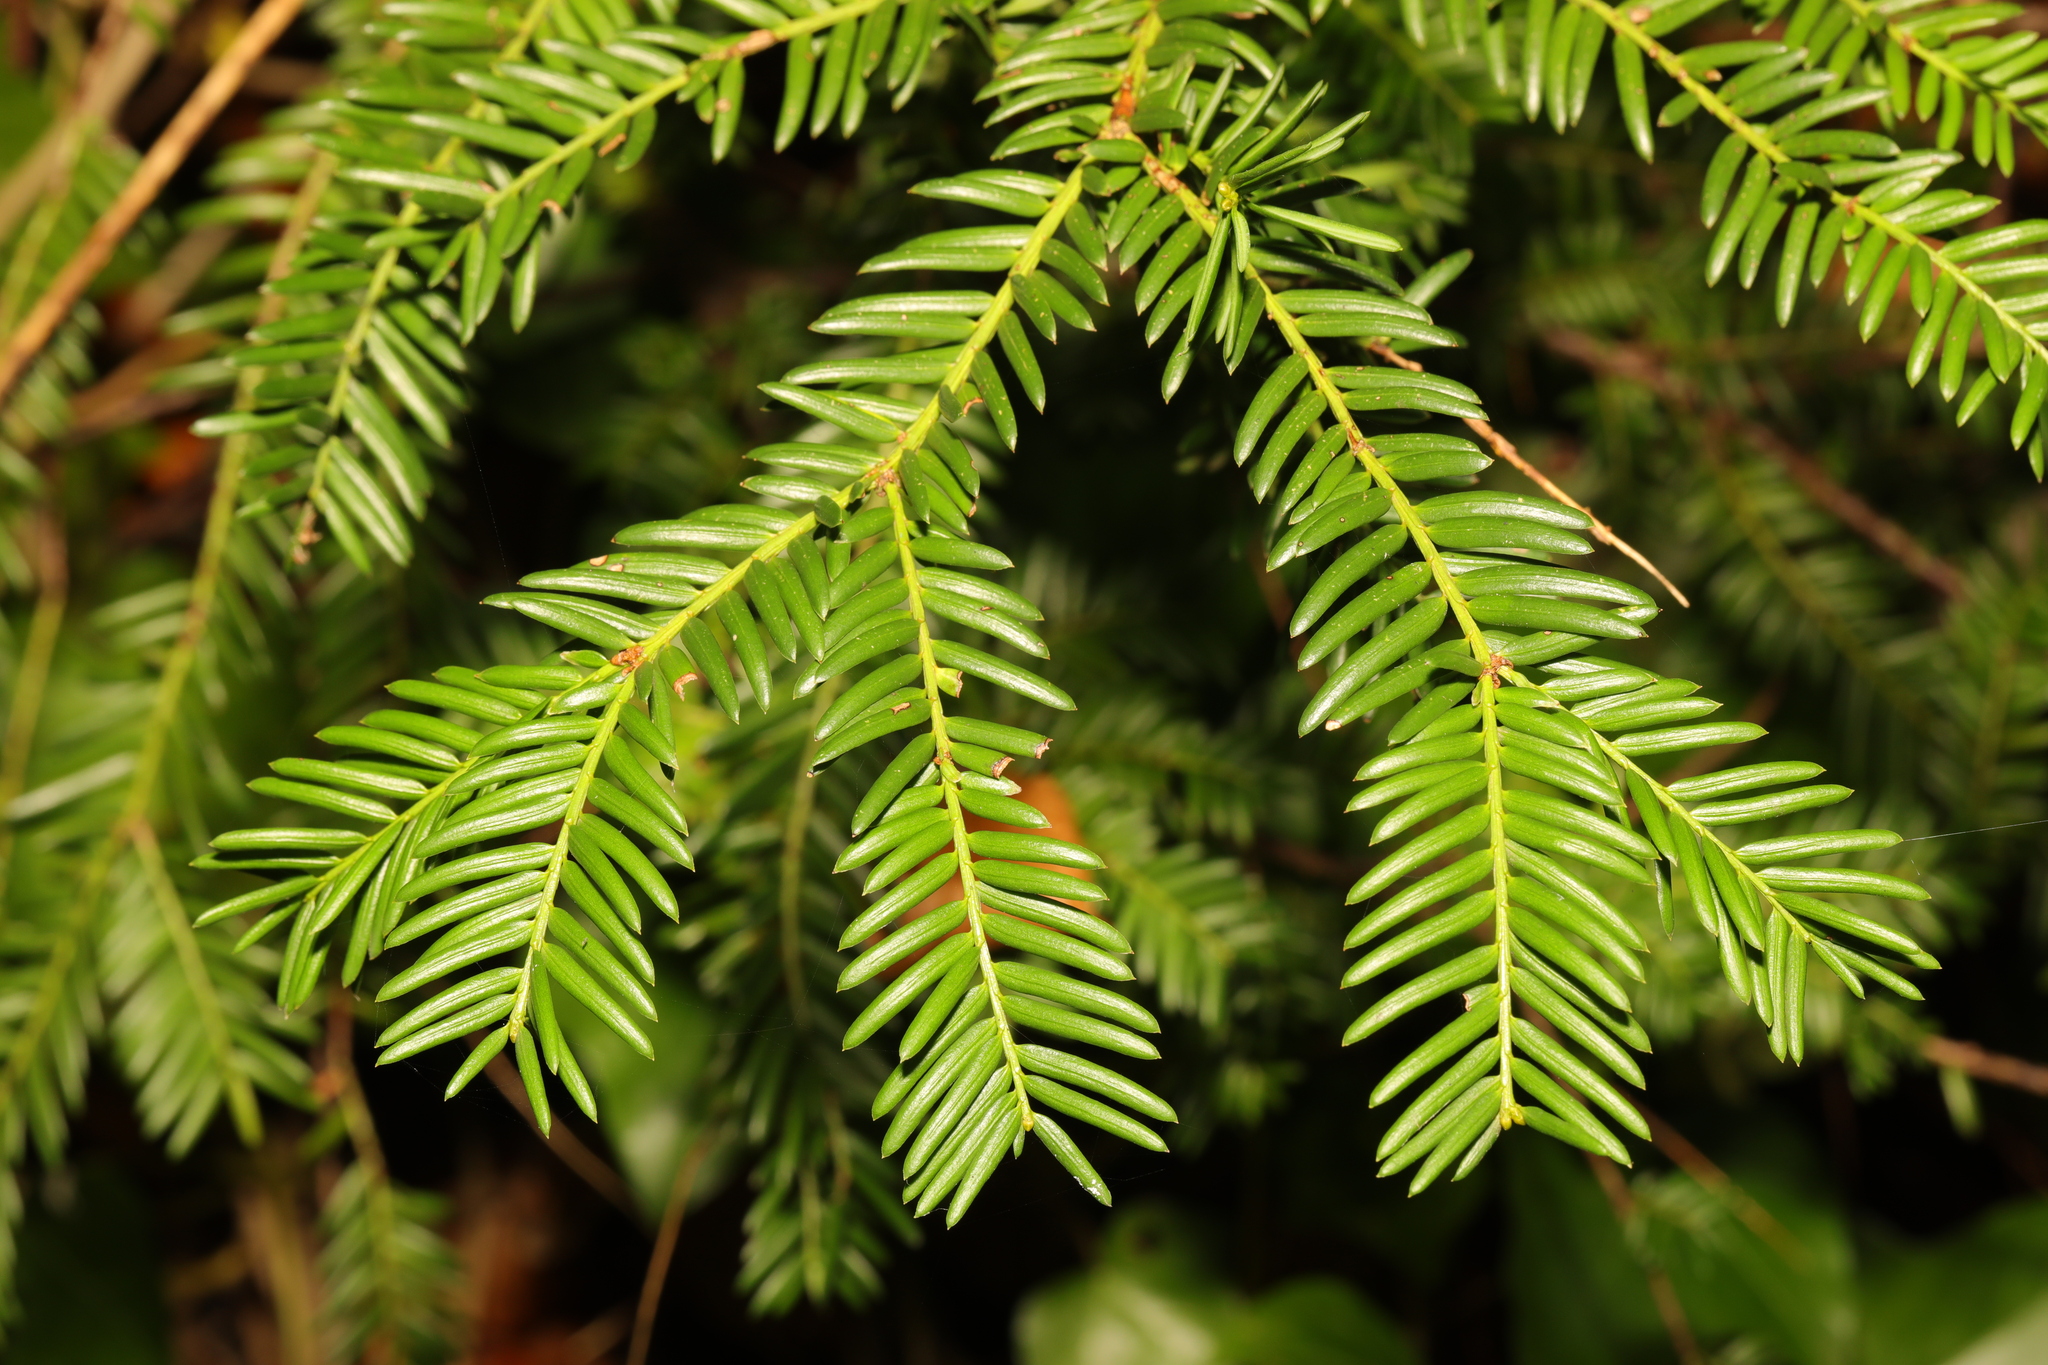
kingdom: Plantae
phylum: Tracheophyta
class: Pinopsida
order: Pinales
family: Taxaceae
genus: Taxus
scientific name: Taxus baccata
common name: Yew
